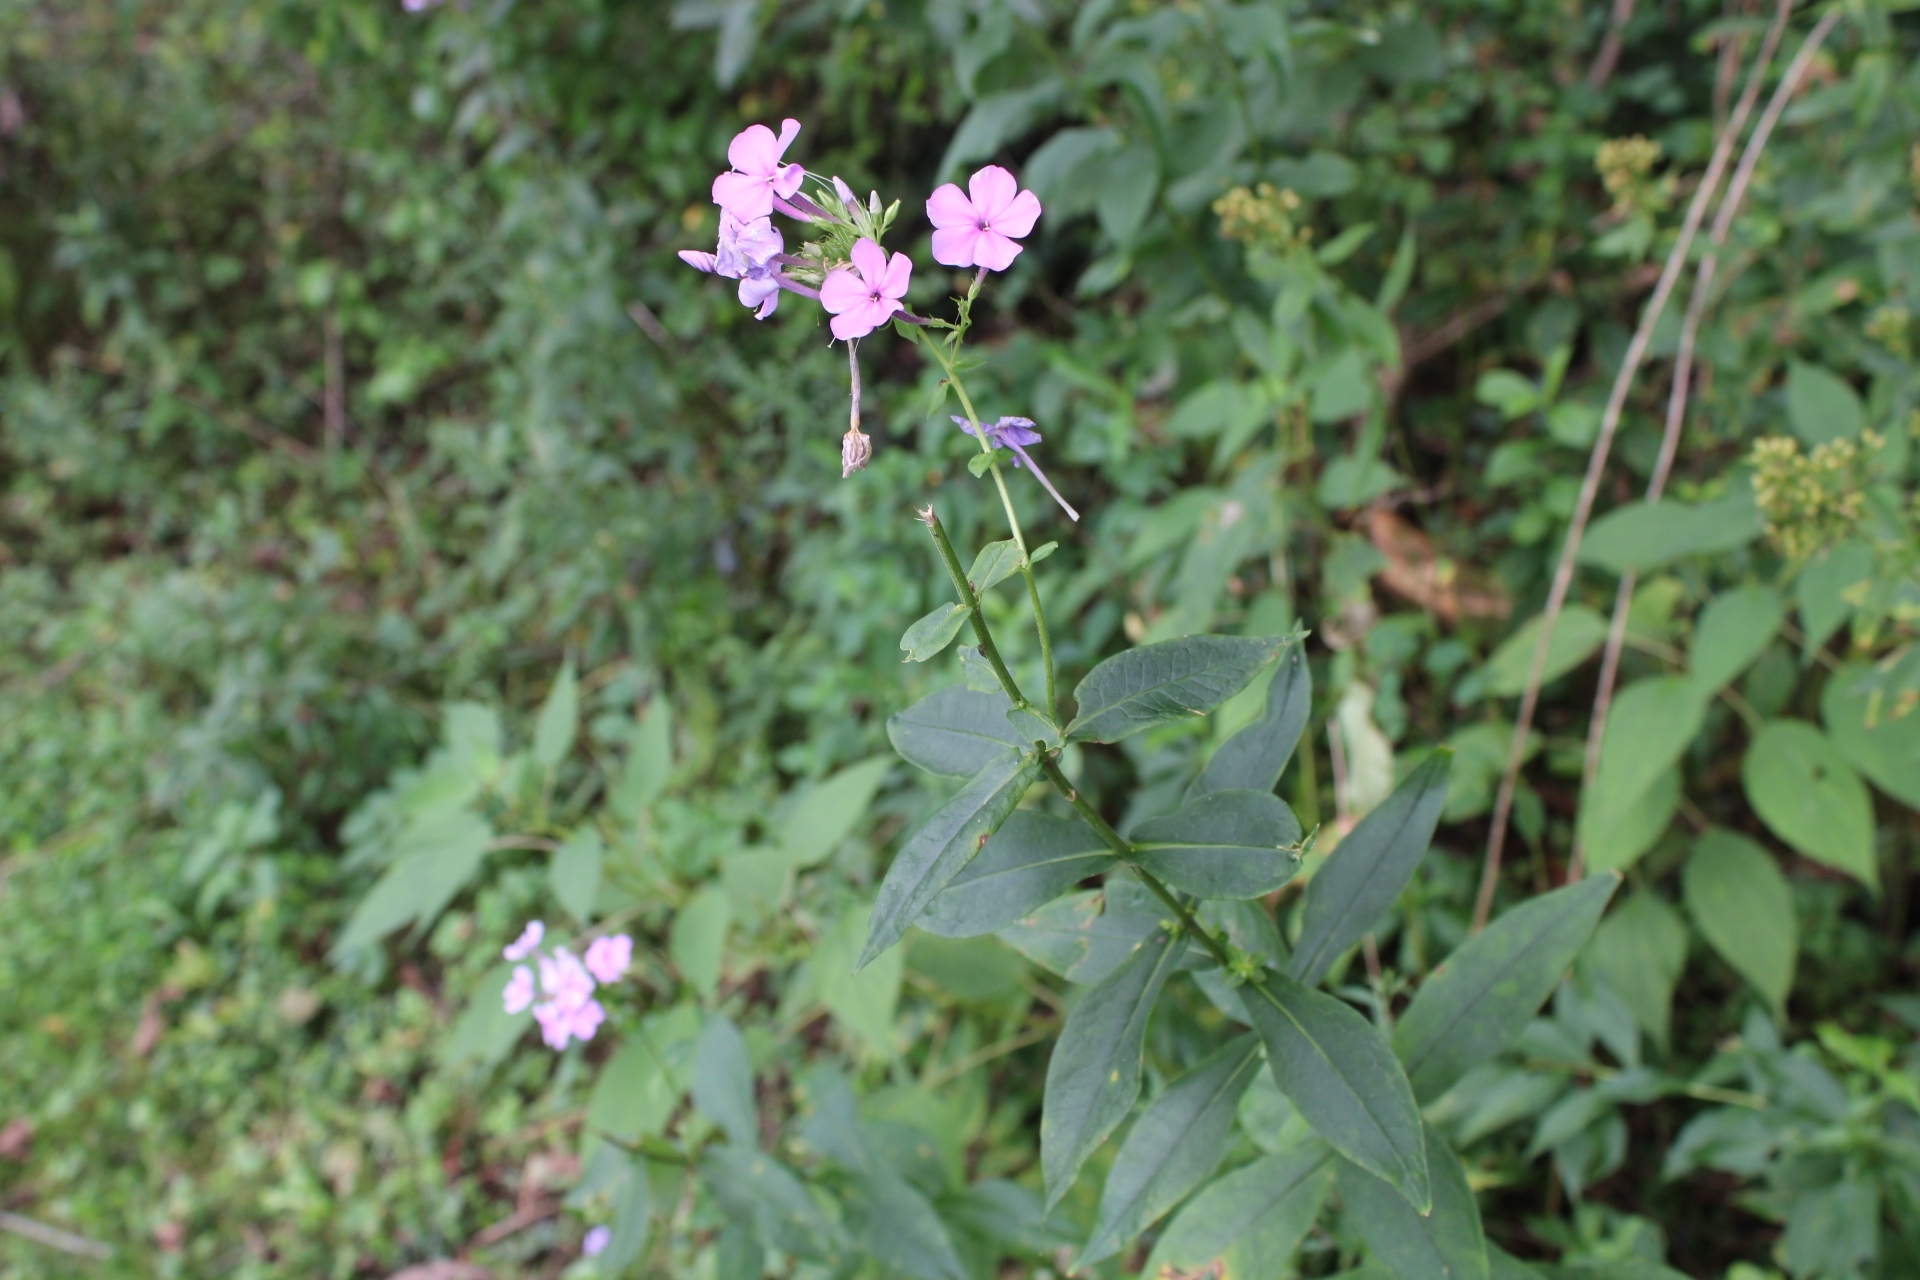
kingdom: Plantae
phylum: Tracheophyta
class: Magnoliopsida
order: Ericales
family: Polemoniaceae
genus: Phlox
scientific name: Phlox paniculata
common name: Fall phlox
